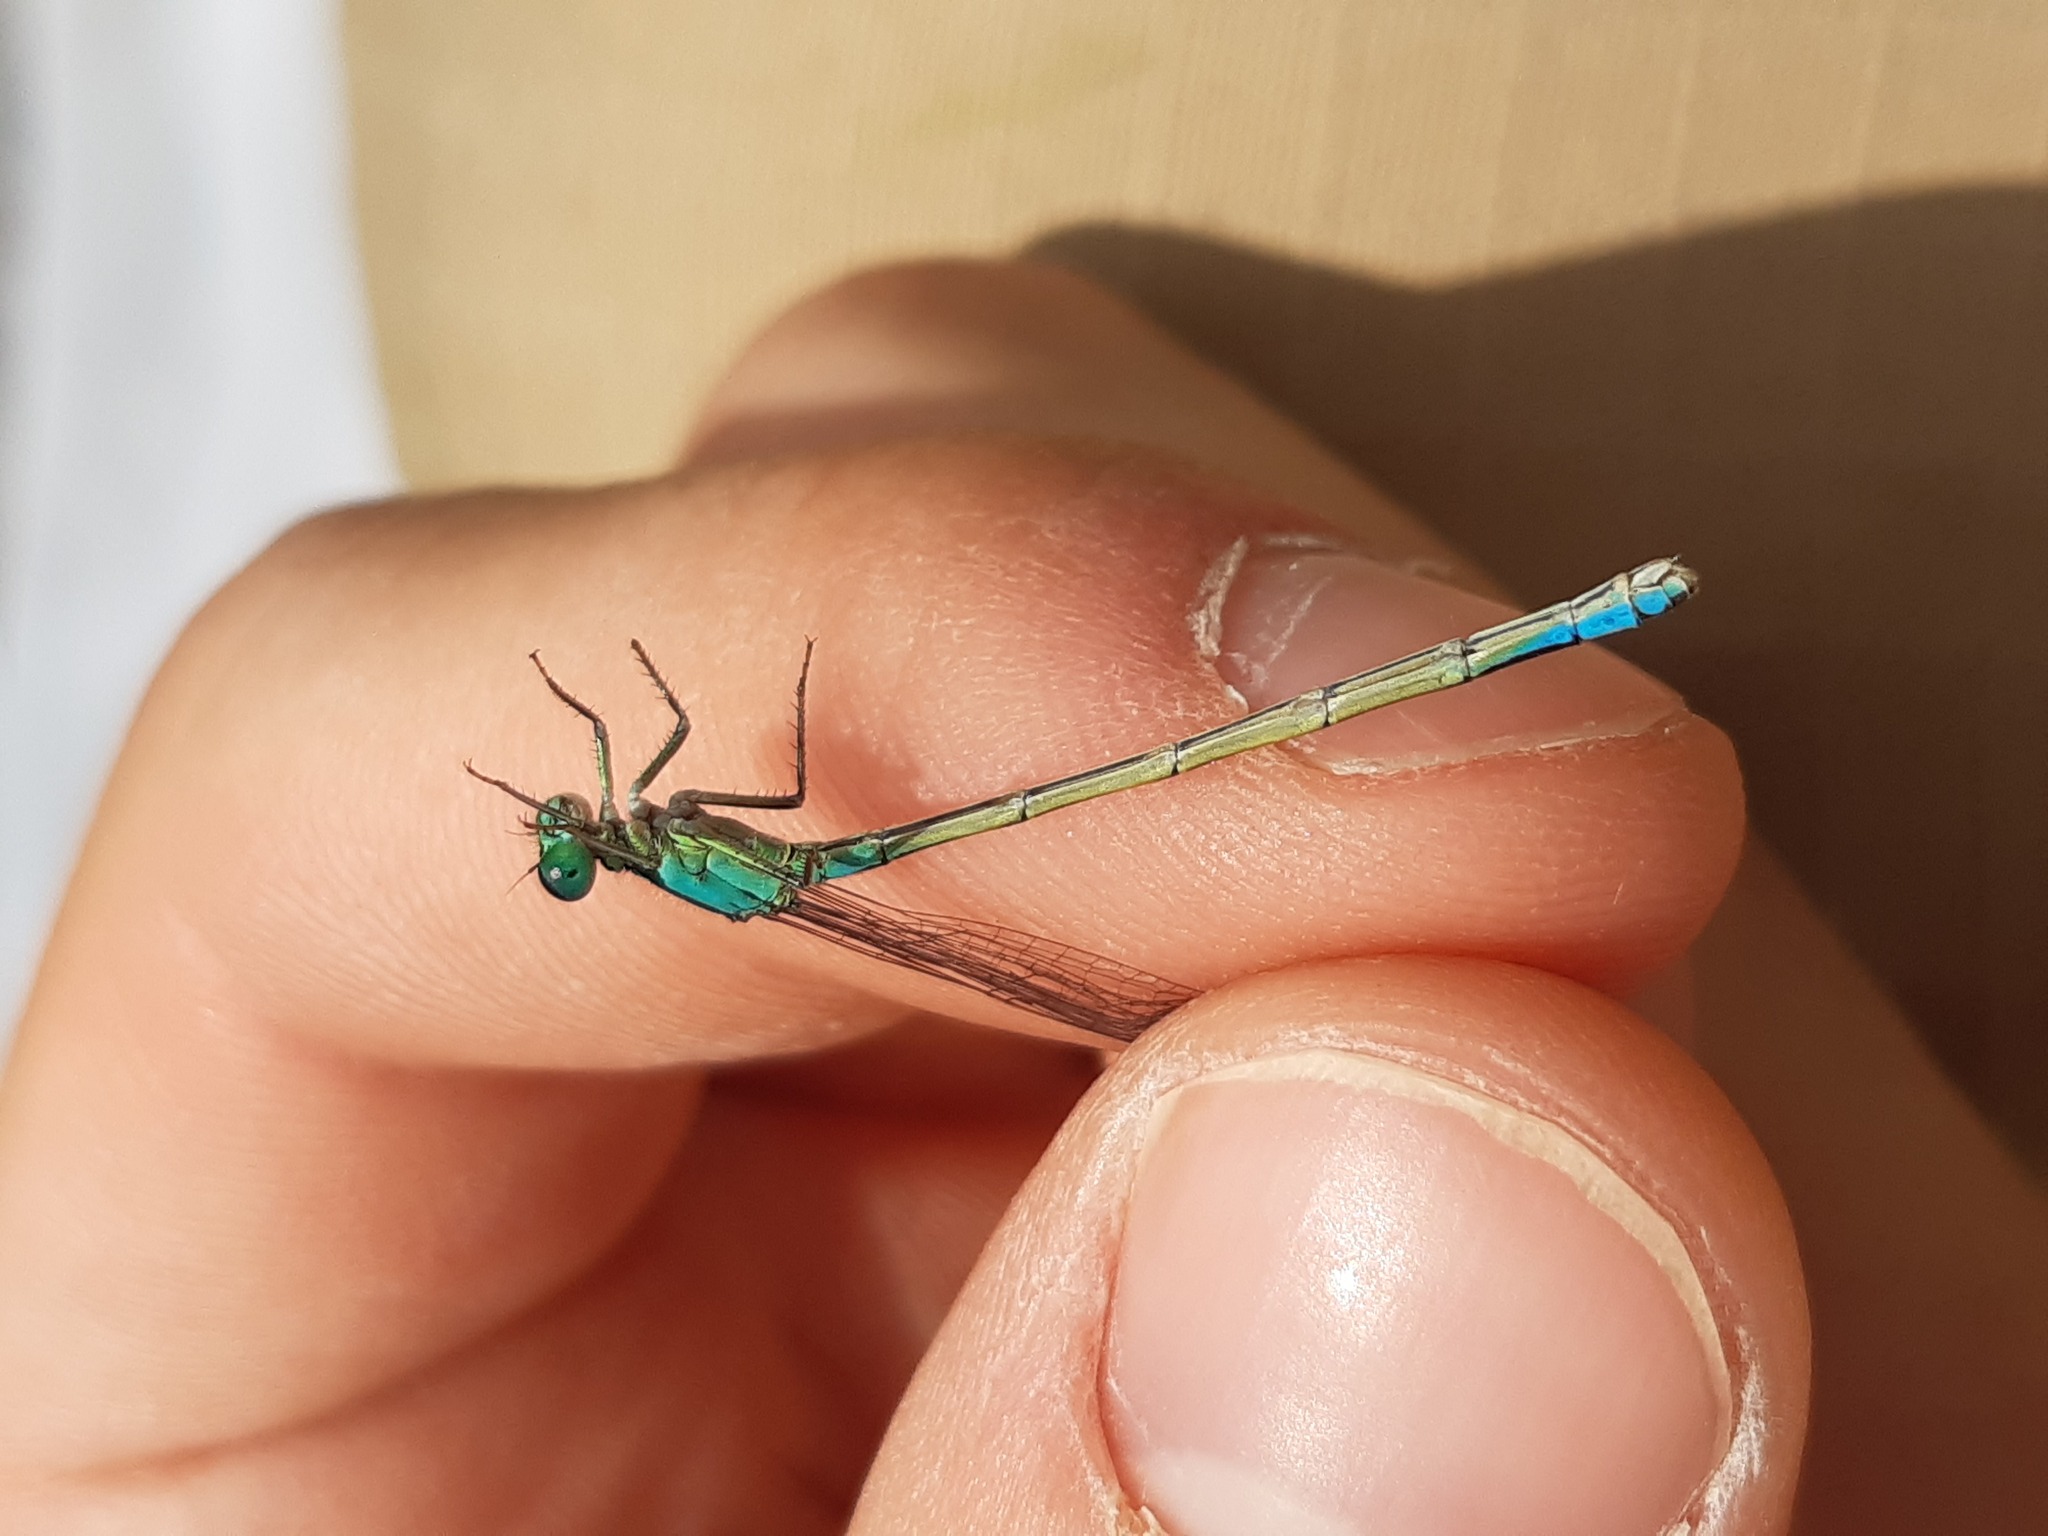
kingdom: Animalia
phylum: Arthropoda
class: Insecta
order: Odonata
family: Coenagrionidae
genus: Ischnura
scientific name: Ischnura elegans
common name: Blue-tailed damselfly
